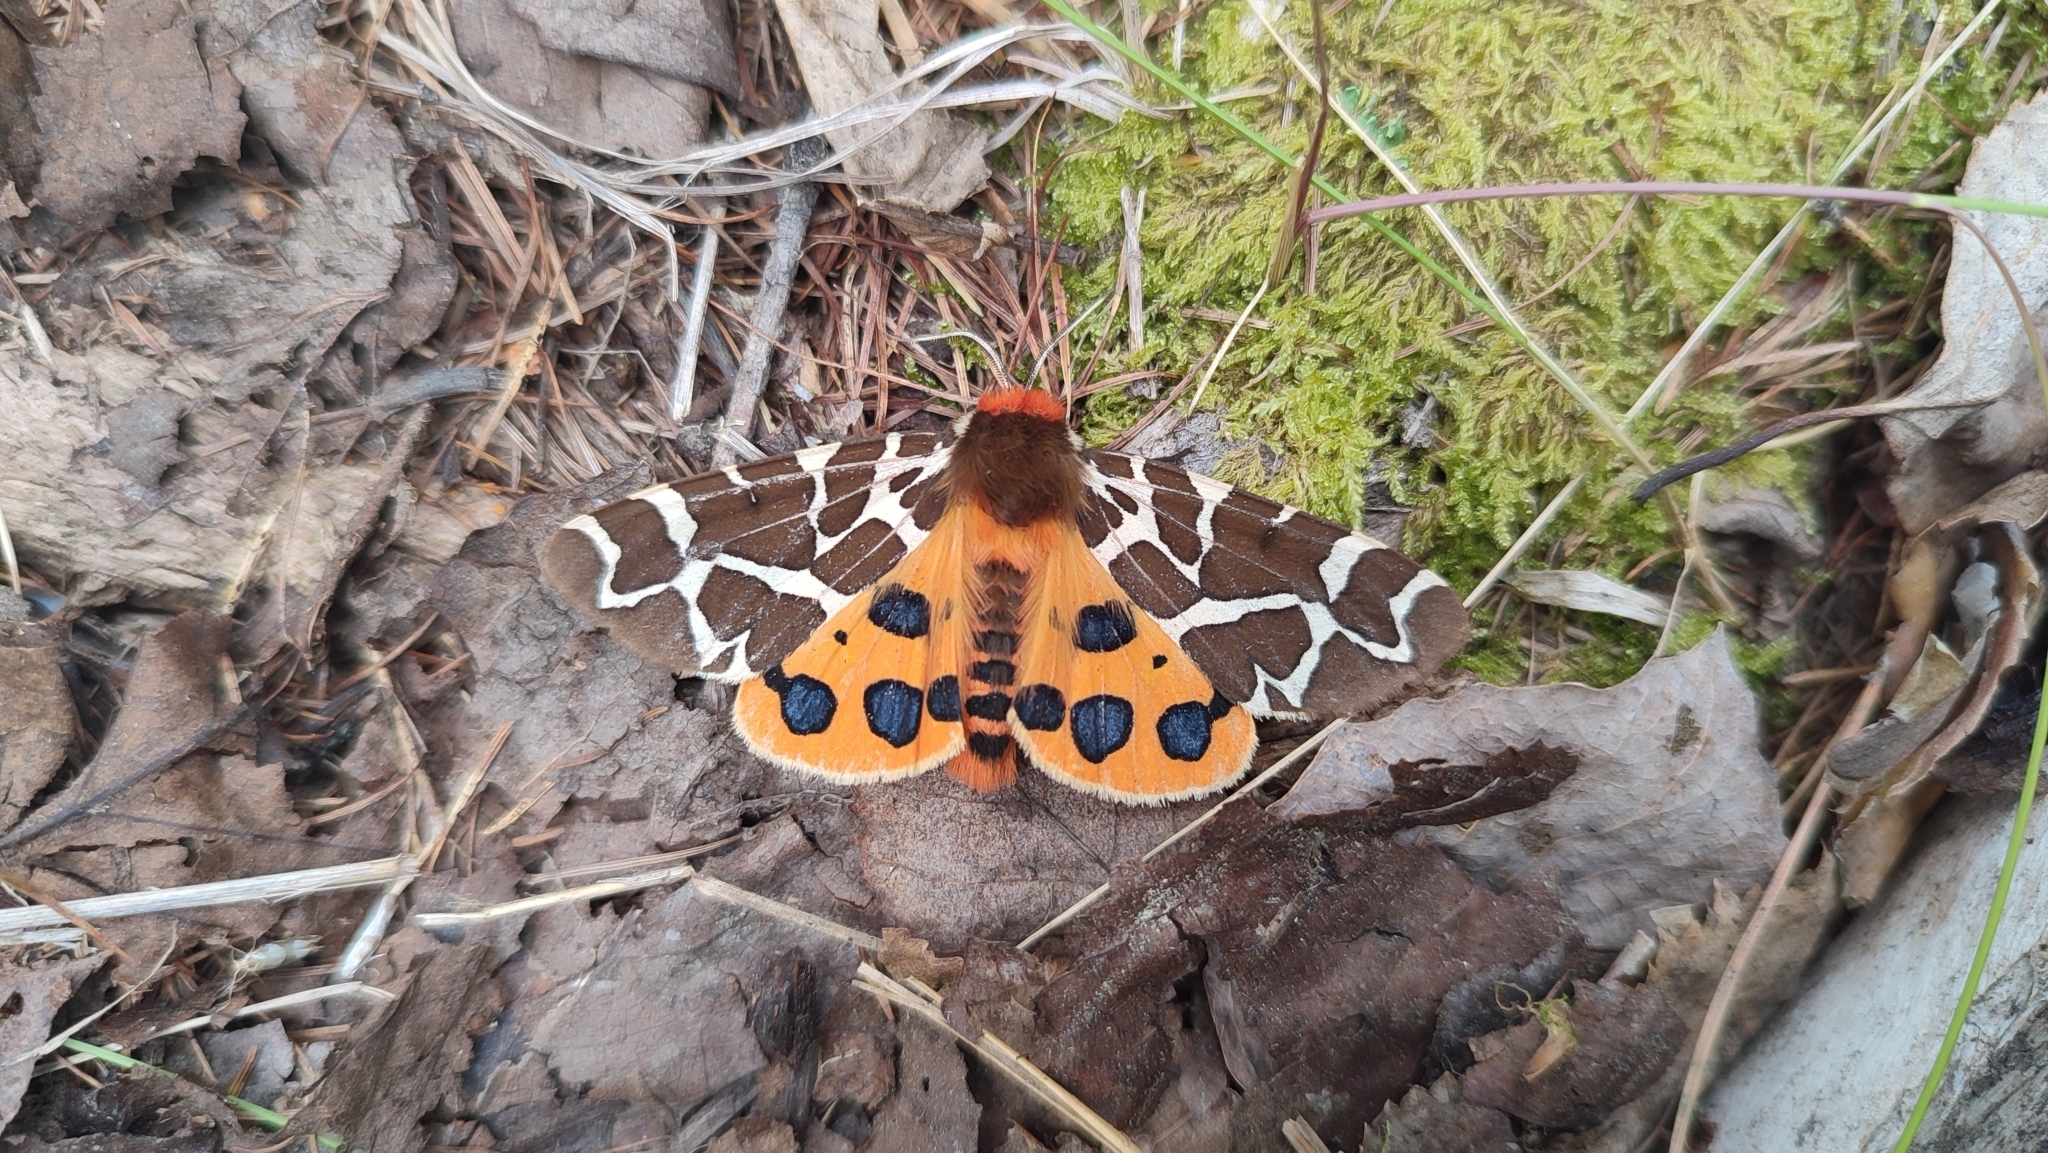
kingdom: Animalia
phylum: Arthropoda
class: Insecta
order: Lepidoptera
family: Erebidae
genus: Arctia
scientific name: Arctia caja
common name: Garden tiger
